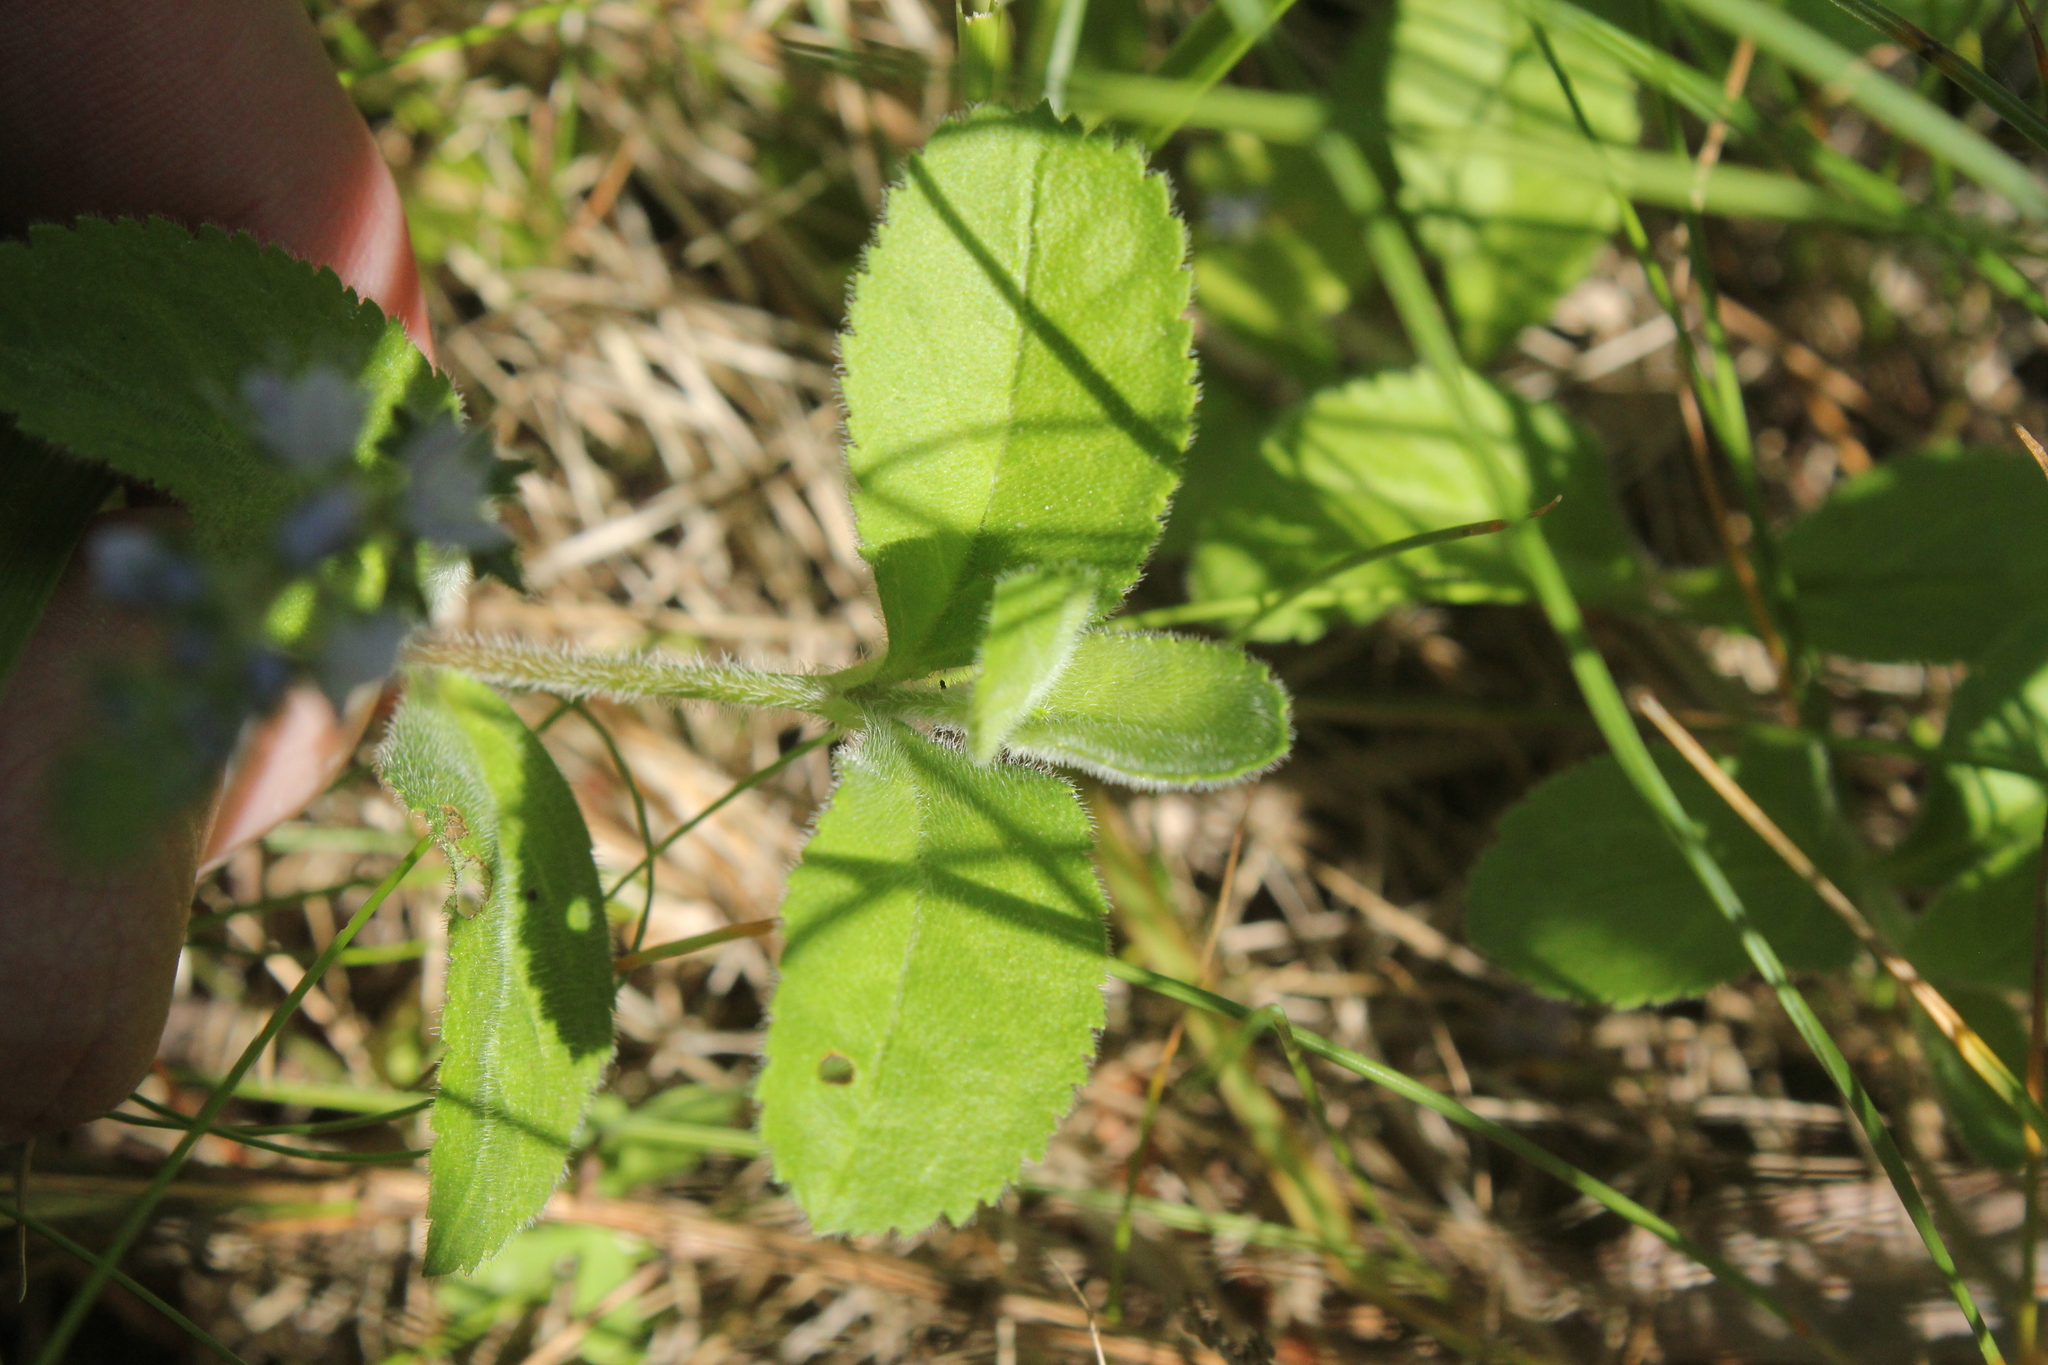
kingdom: Plantae
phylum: Tracheophyta
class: Magnoliopsida
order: Lamiales
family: Plantaginaceae
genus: Veronica
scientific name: Veronica officinalis
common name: Common speedwell
